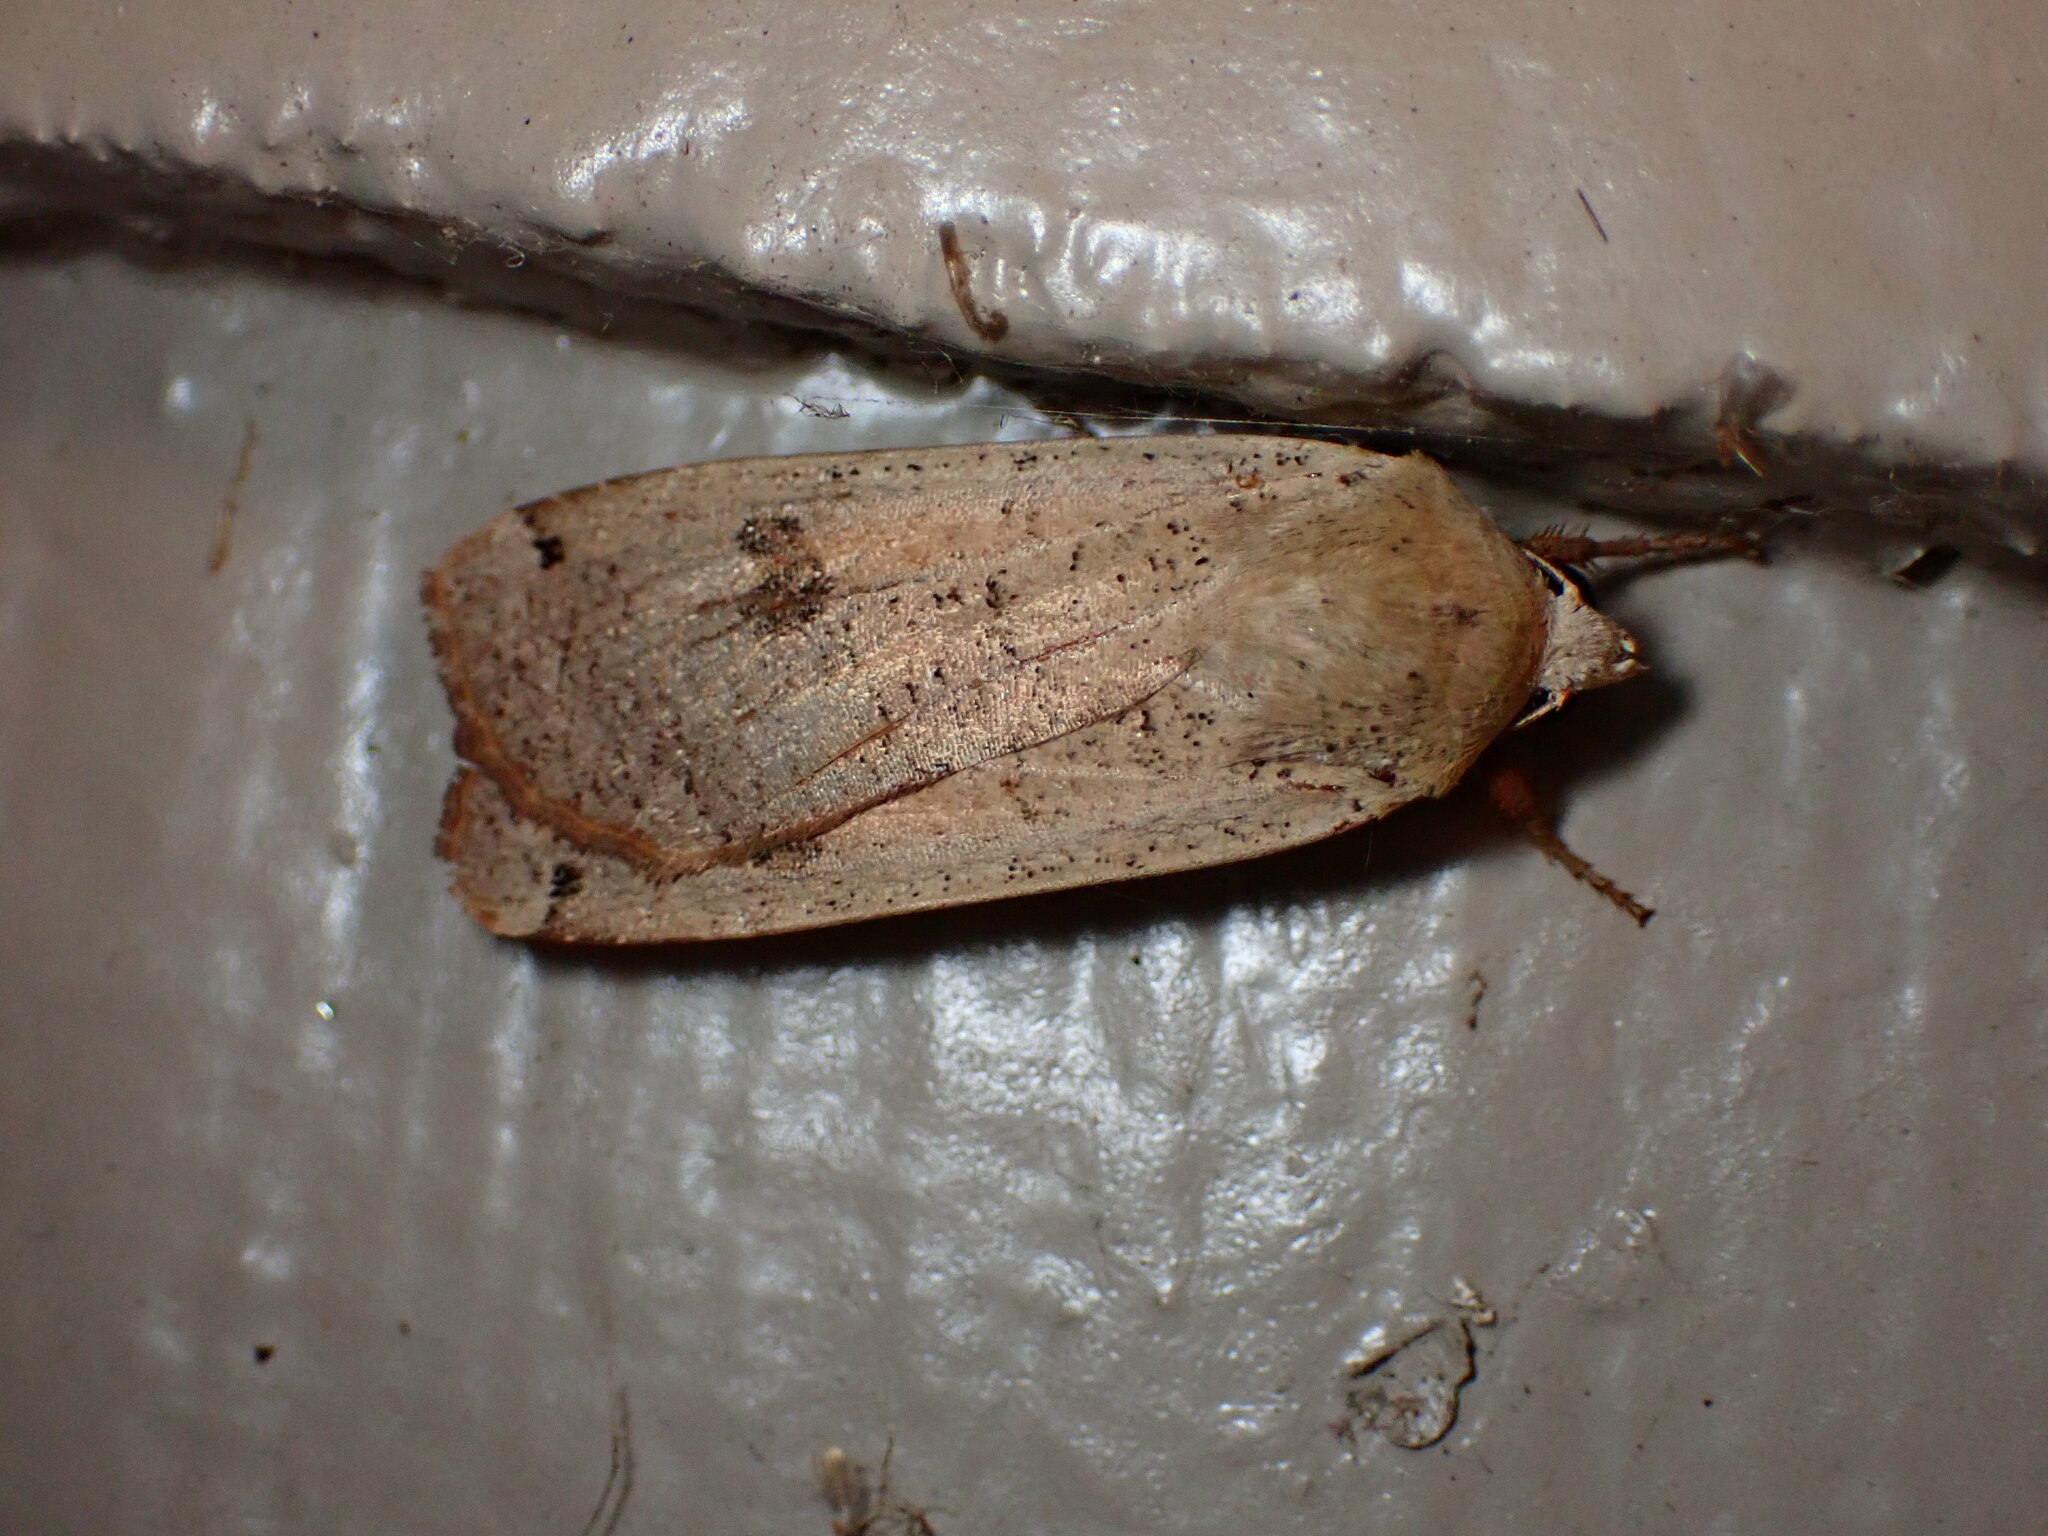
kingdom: Animalia
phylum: Arthropoda
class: Insecta
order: Lepidoptera
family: Noctuidae
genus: Noctua
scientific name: Noctua pronuba
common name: Large yellow underwing
